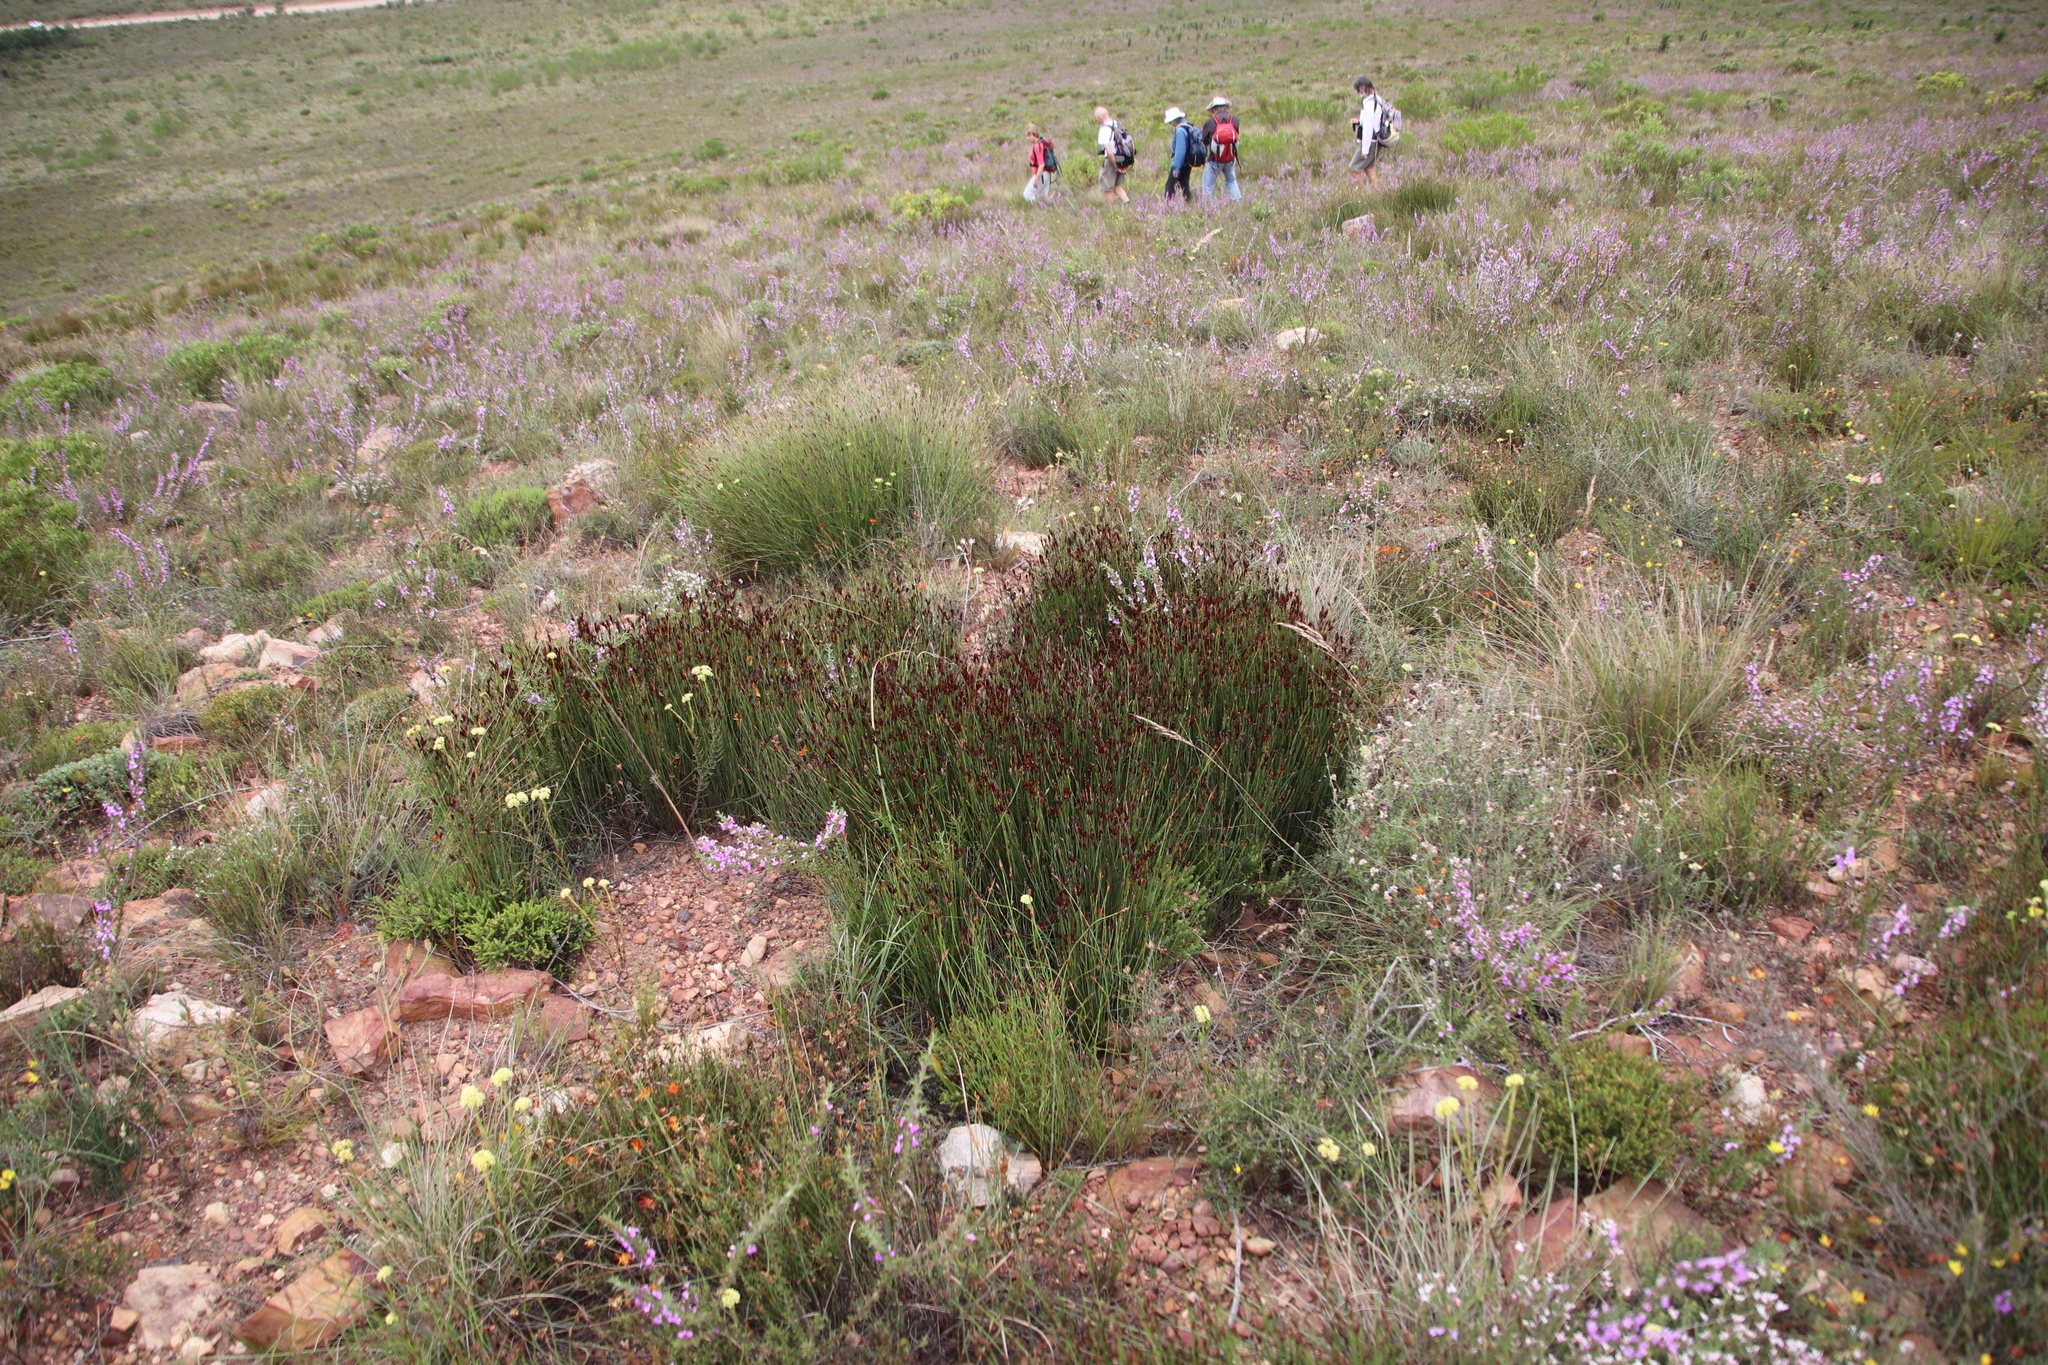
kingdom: Plantae
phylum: Tracheophyta
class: Liliopsida
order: Poales
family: Restionaceae
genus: Hypodiscus
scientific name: Hypodiscus striatus
